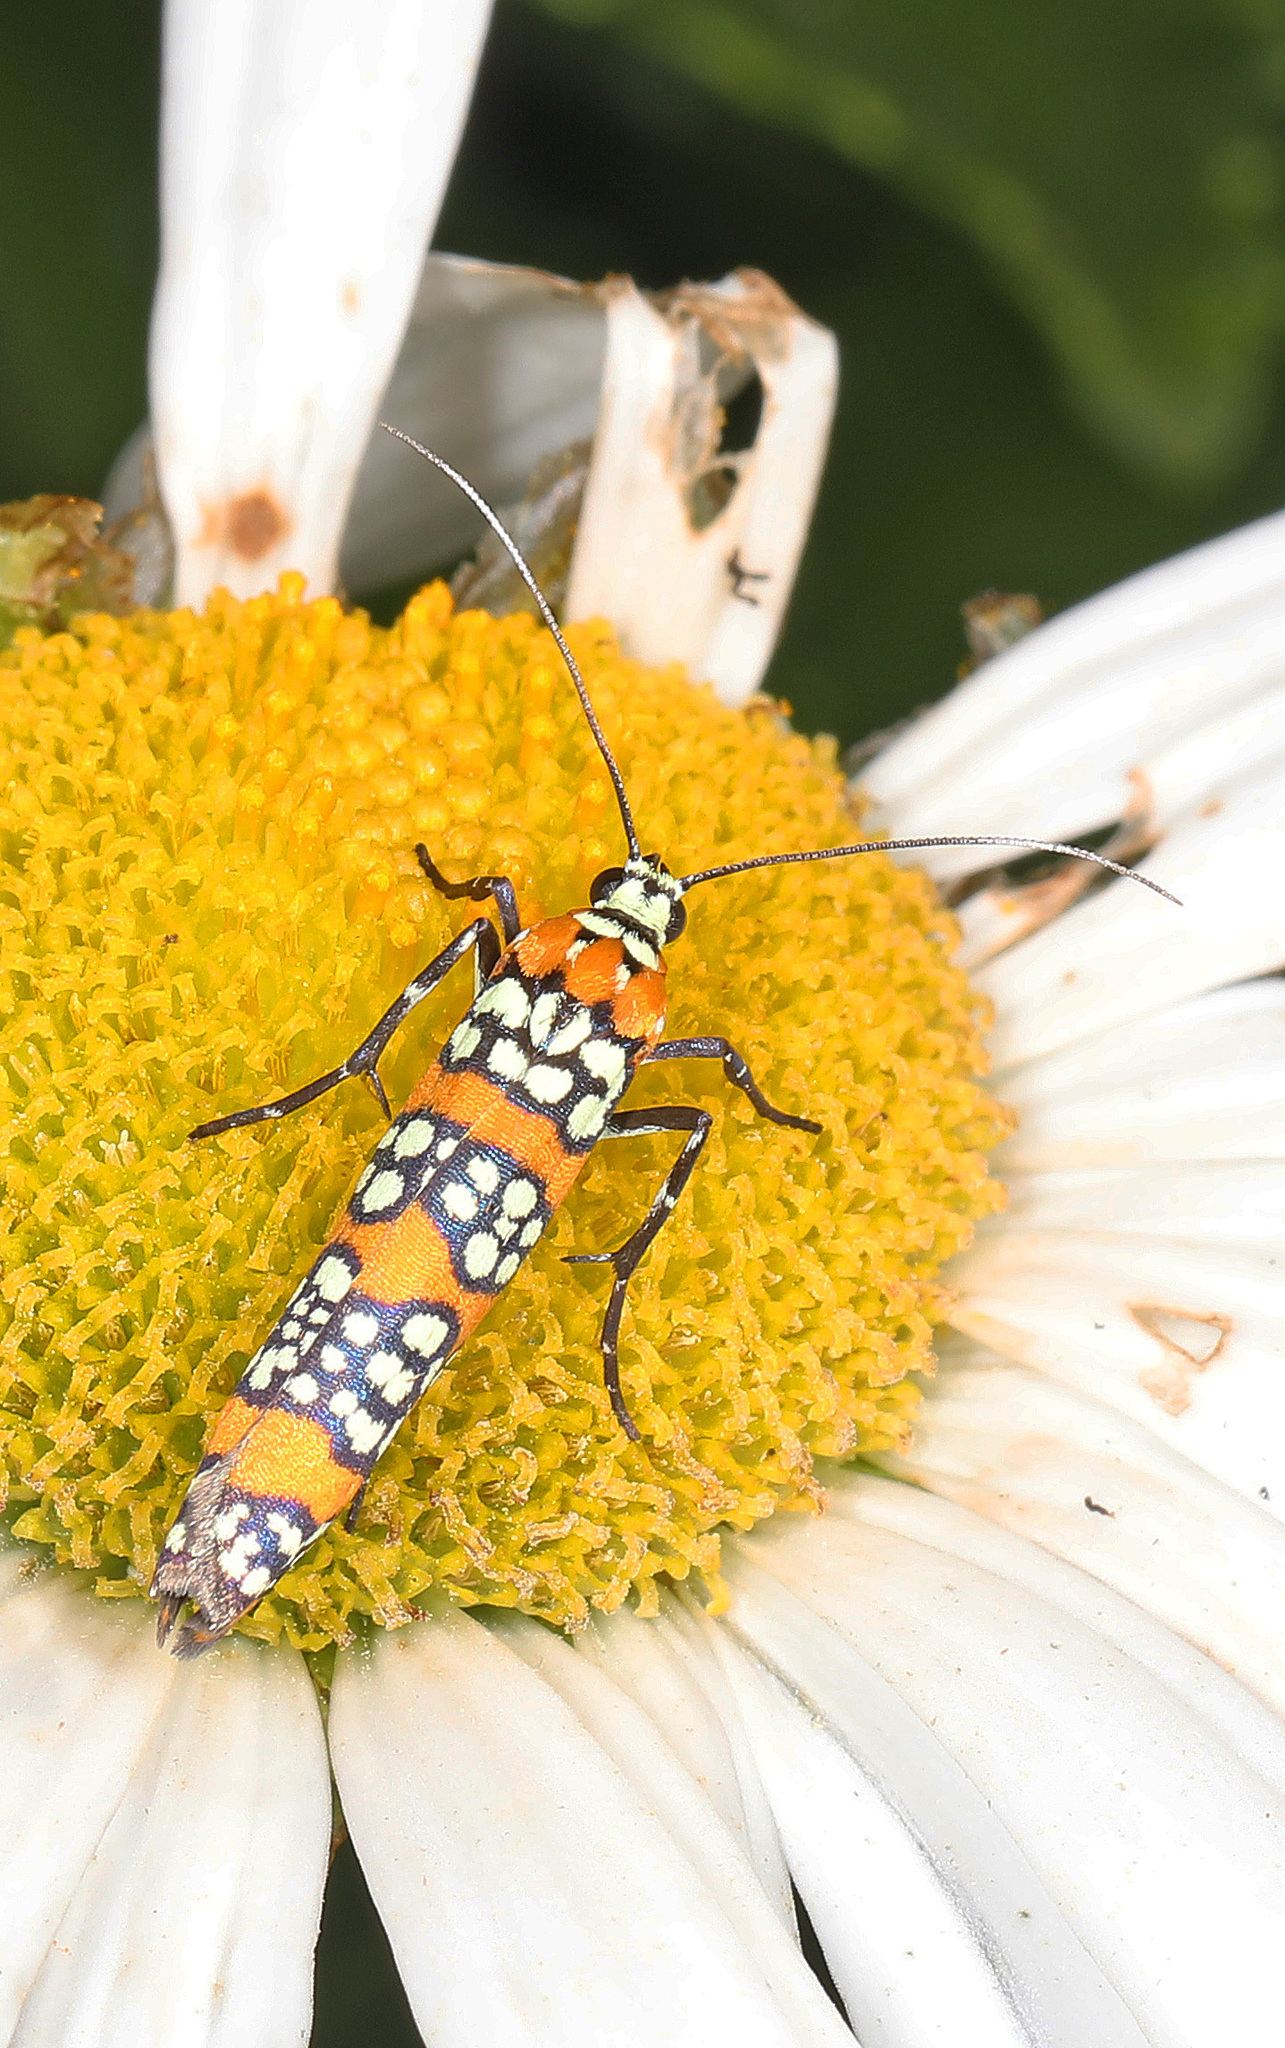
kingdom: Animalia
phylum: Arthropoda
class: Insecta
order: Lepidoptera
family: Attevidae
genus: Atteva
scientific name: Atteva punctella
